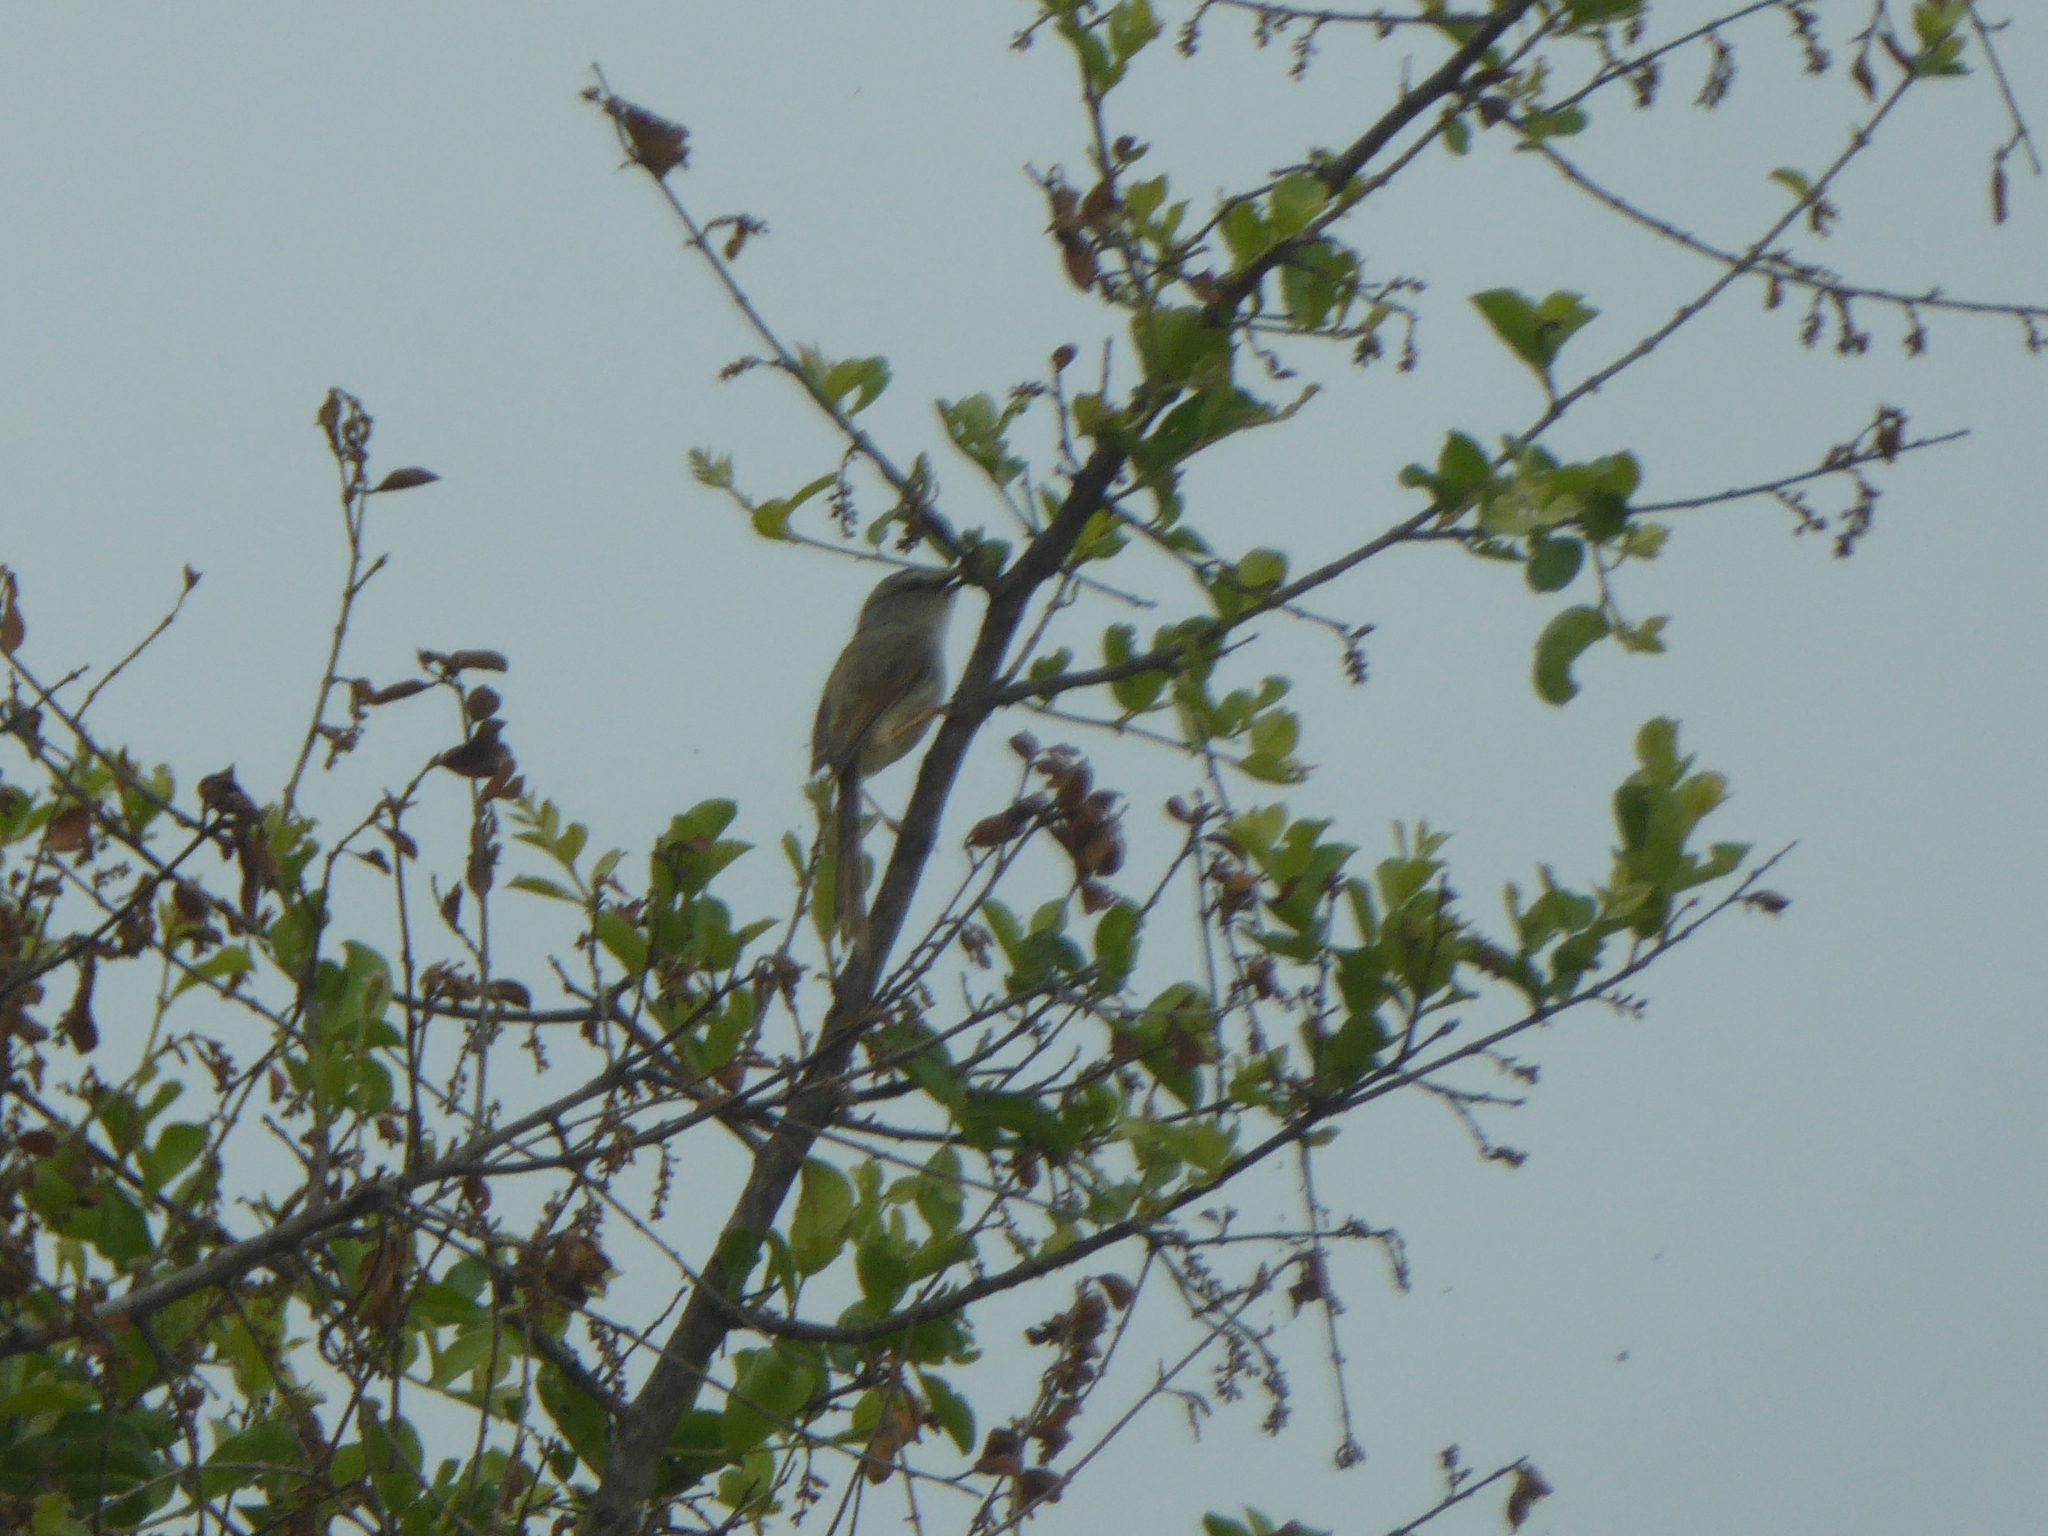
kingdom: Animalia
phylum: Chordata
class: Aves
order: Passeriformes
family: Cisticolidae
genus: Prinia
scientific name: Prinia subflava
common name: Tawny-flanked prinia
